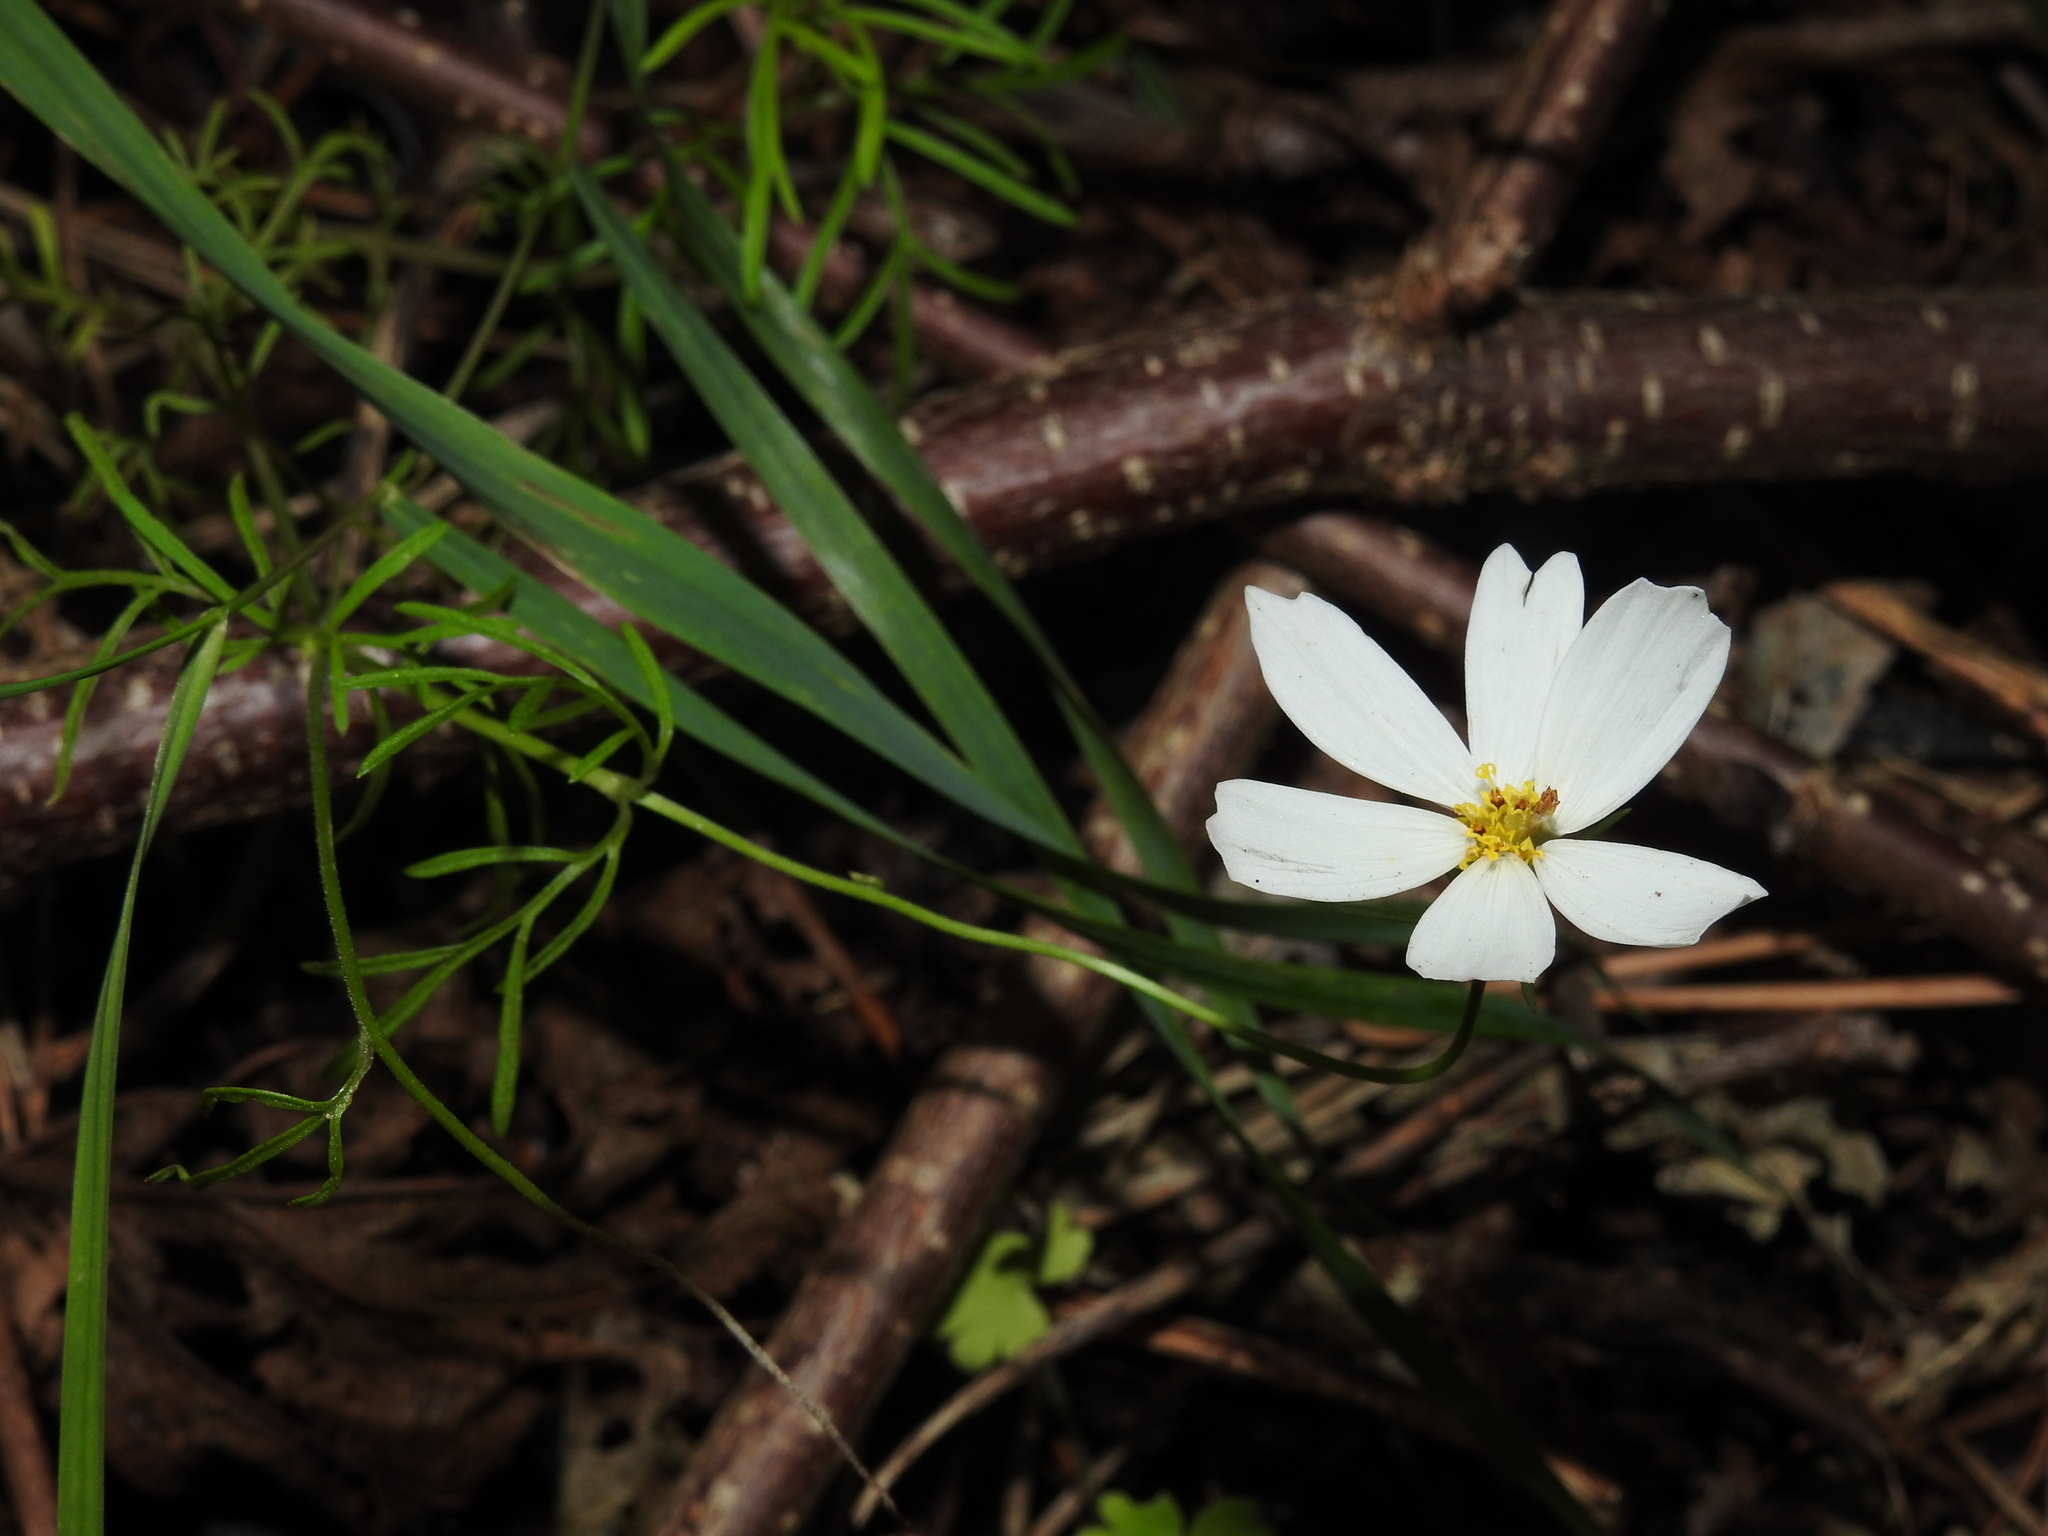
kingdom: Plantae
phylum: Tracheophyta
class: Magnoliopsida
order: Asterales
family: Asteraceae
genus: Cosmos
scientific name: Cosmos bipinnatus
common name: Garden cosmos
